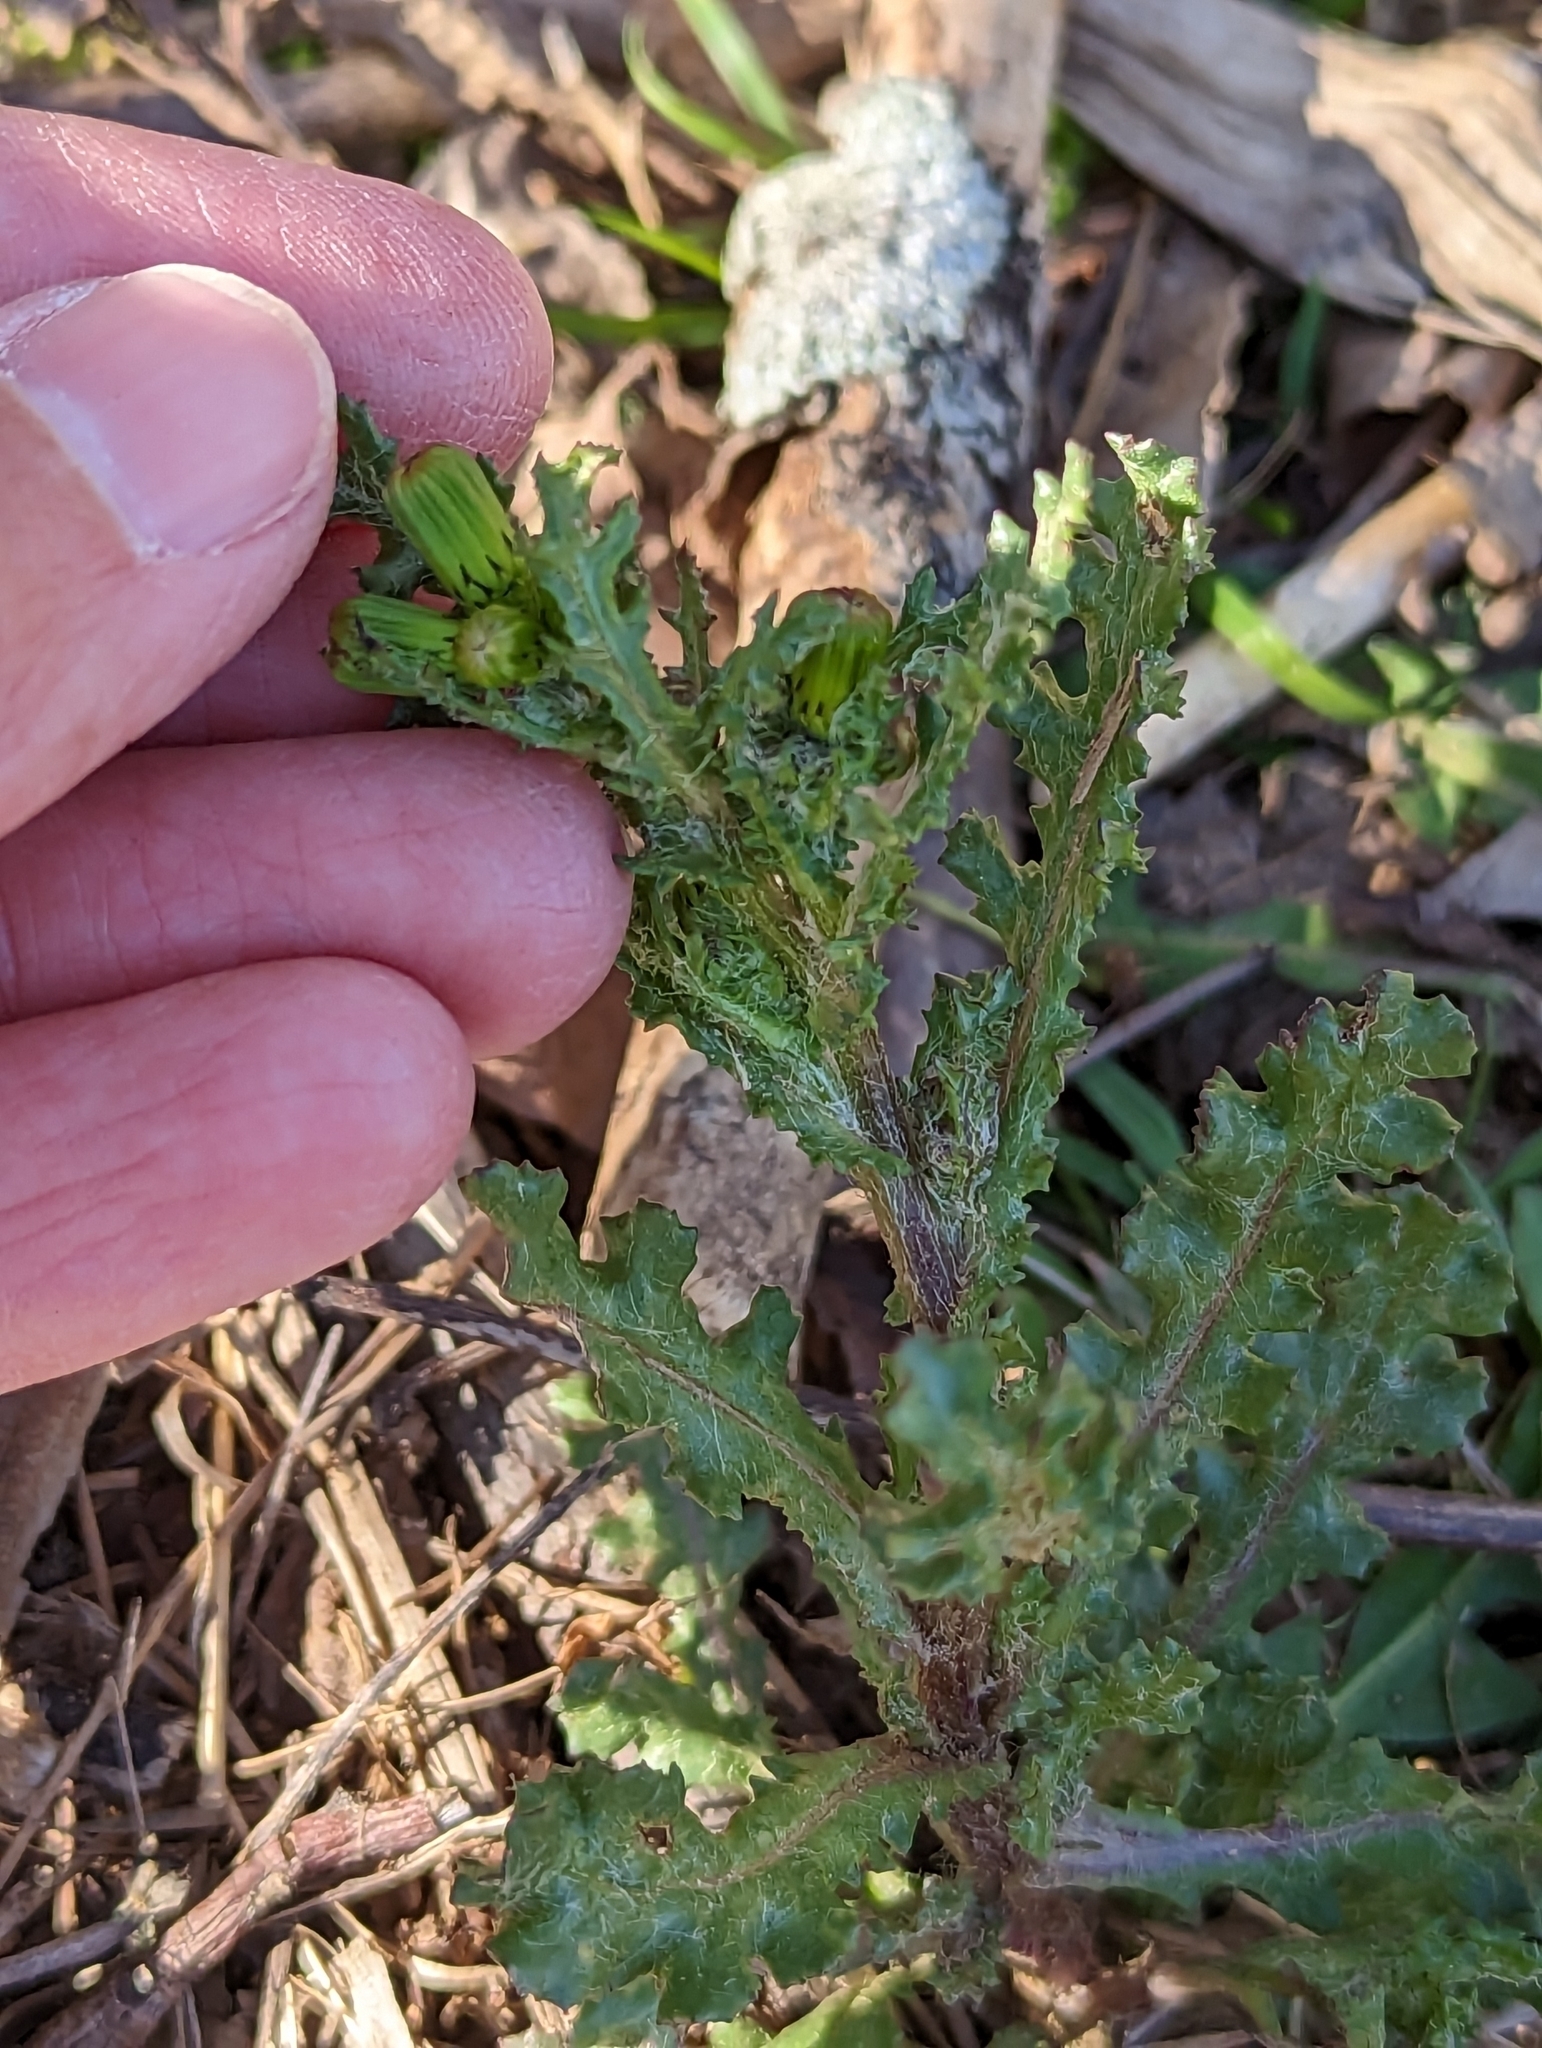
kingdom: Plantae
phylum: Tracheophyta
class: Magnoliopsida
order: Asterales
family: Asteraceae
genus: Senecio
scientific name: Senecio vulgaris
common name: Old-man-in-the-spring
